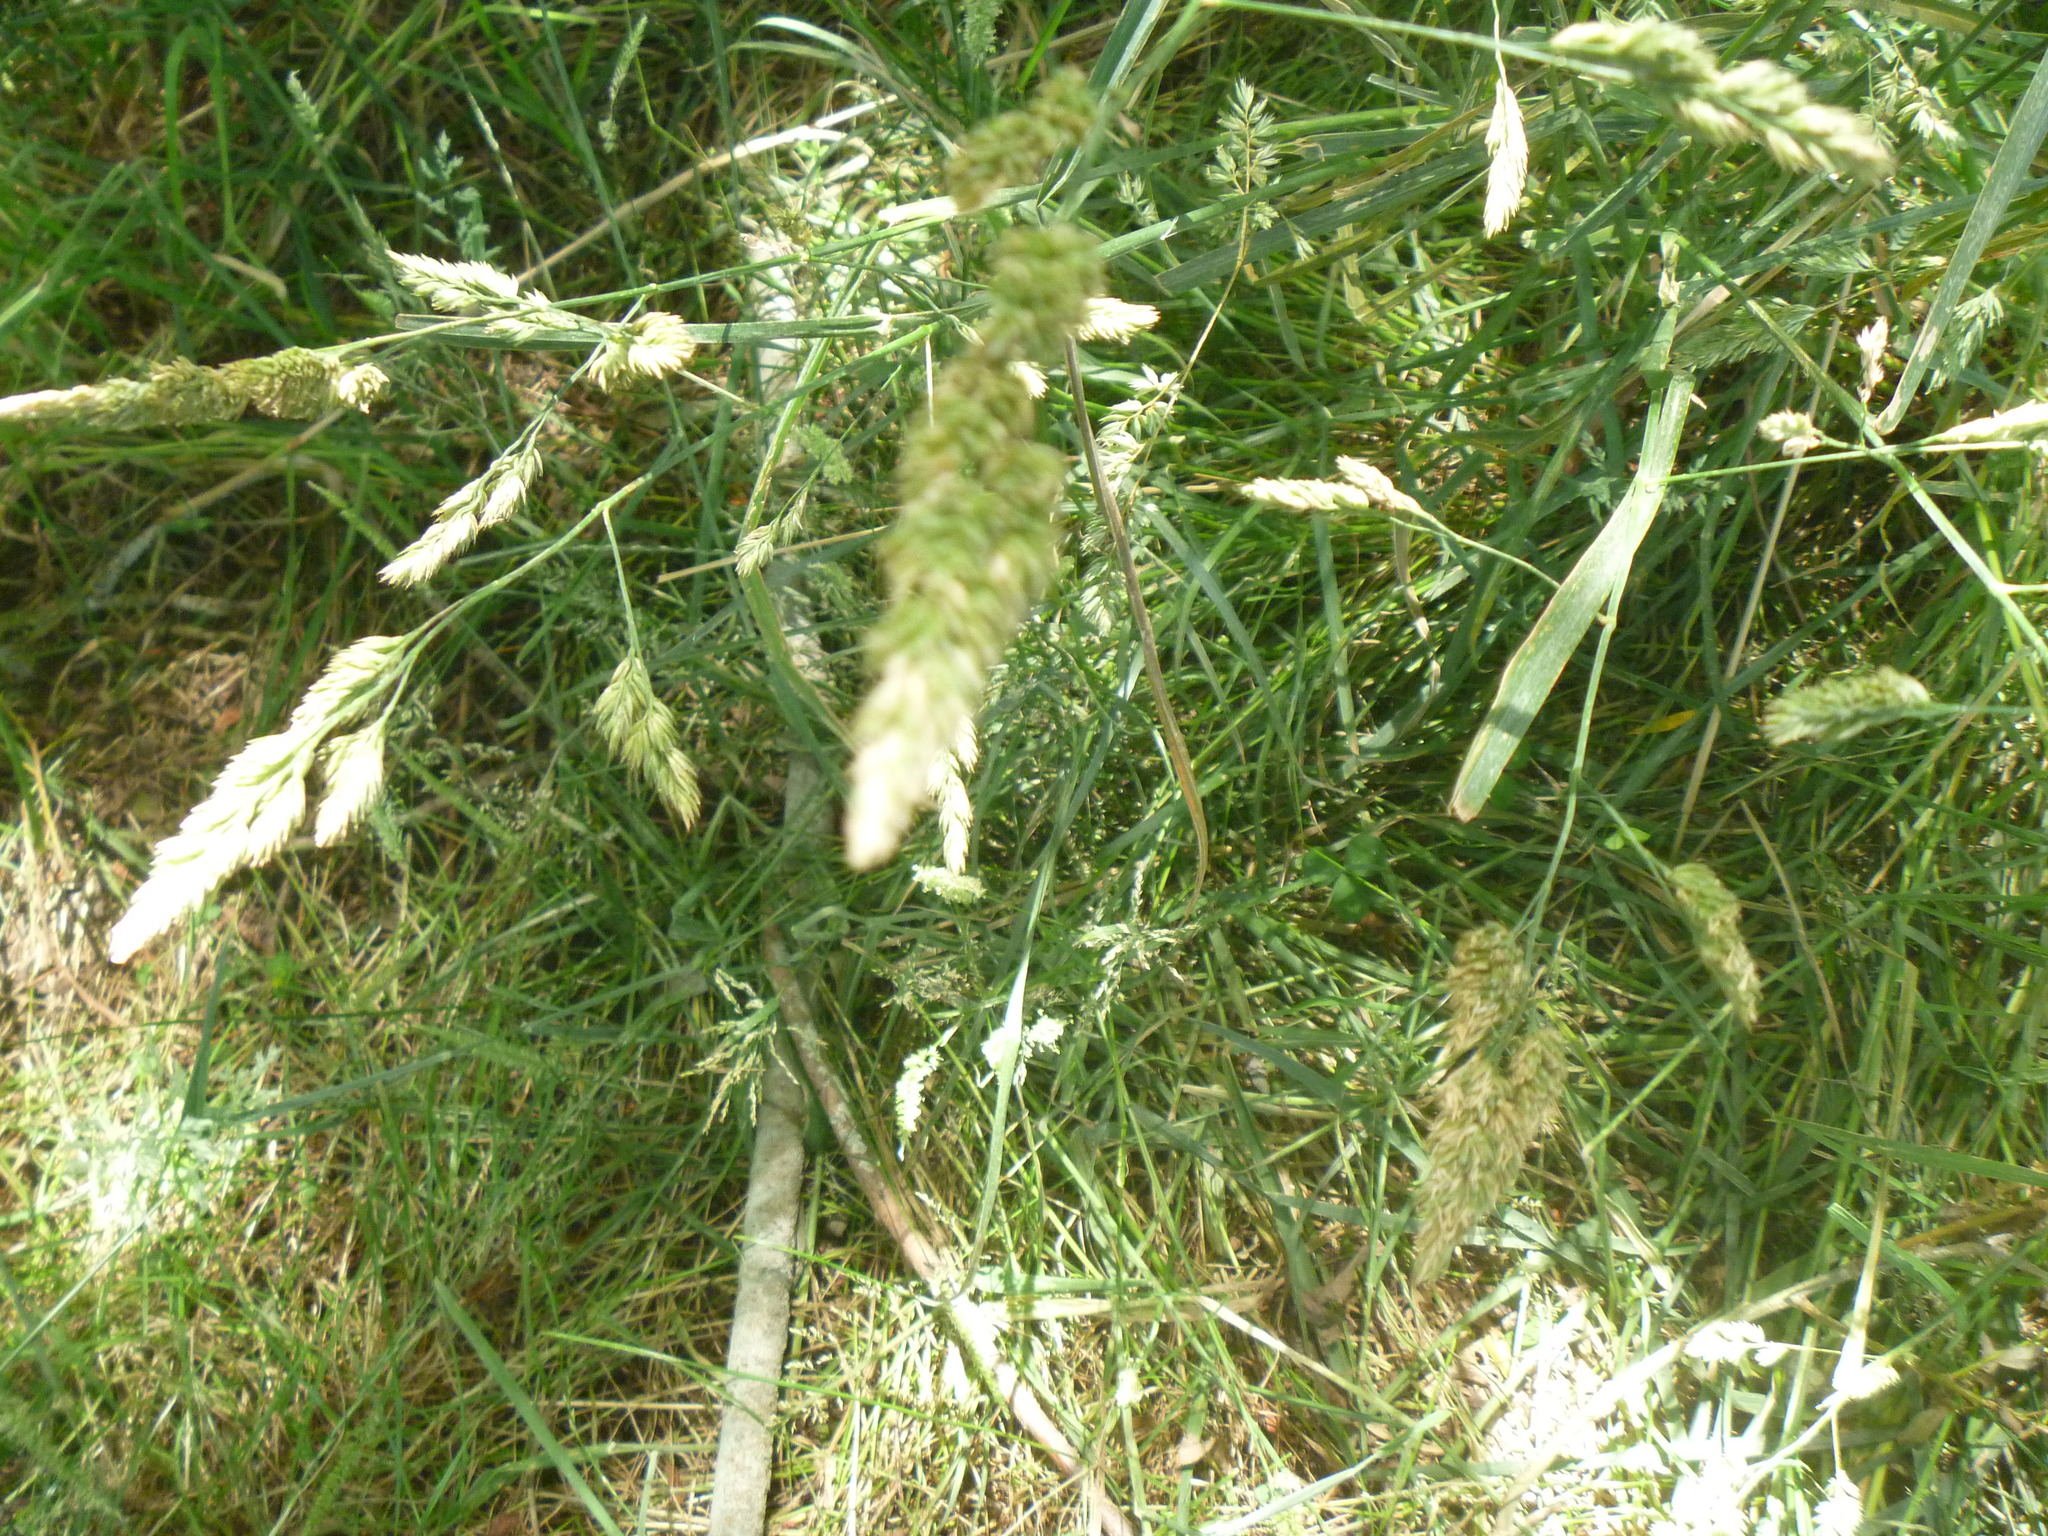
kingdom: Plantae
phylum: Tracheophyta
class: Liliopsida
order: Poales
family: Poaceae
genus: Dactylis
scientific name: Dactylis glomerata
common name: Orchardgrass
